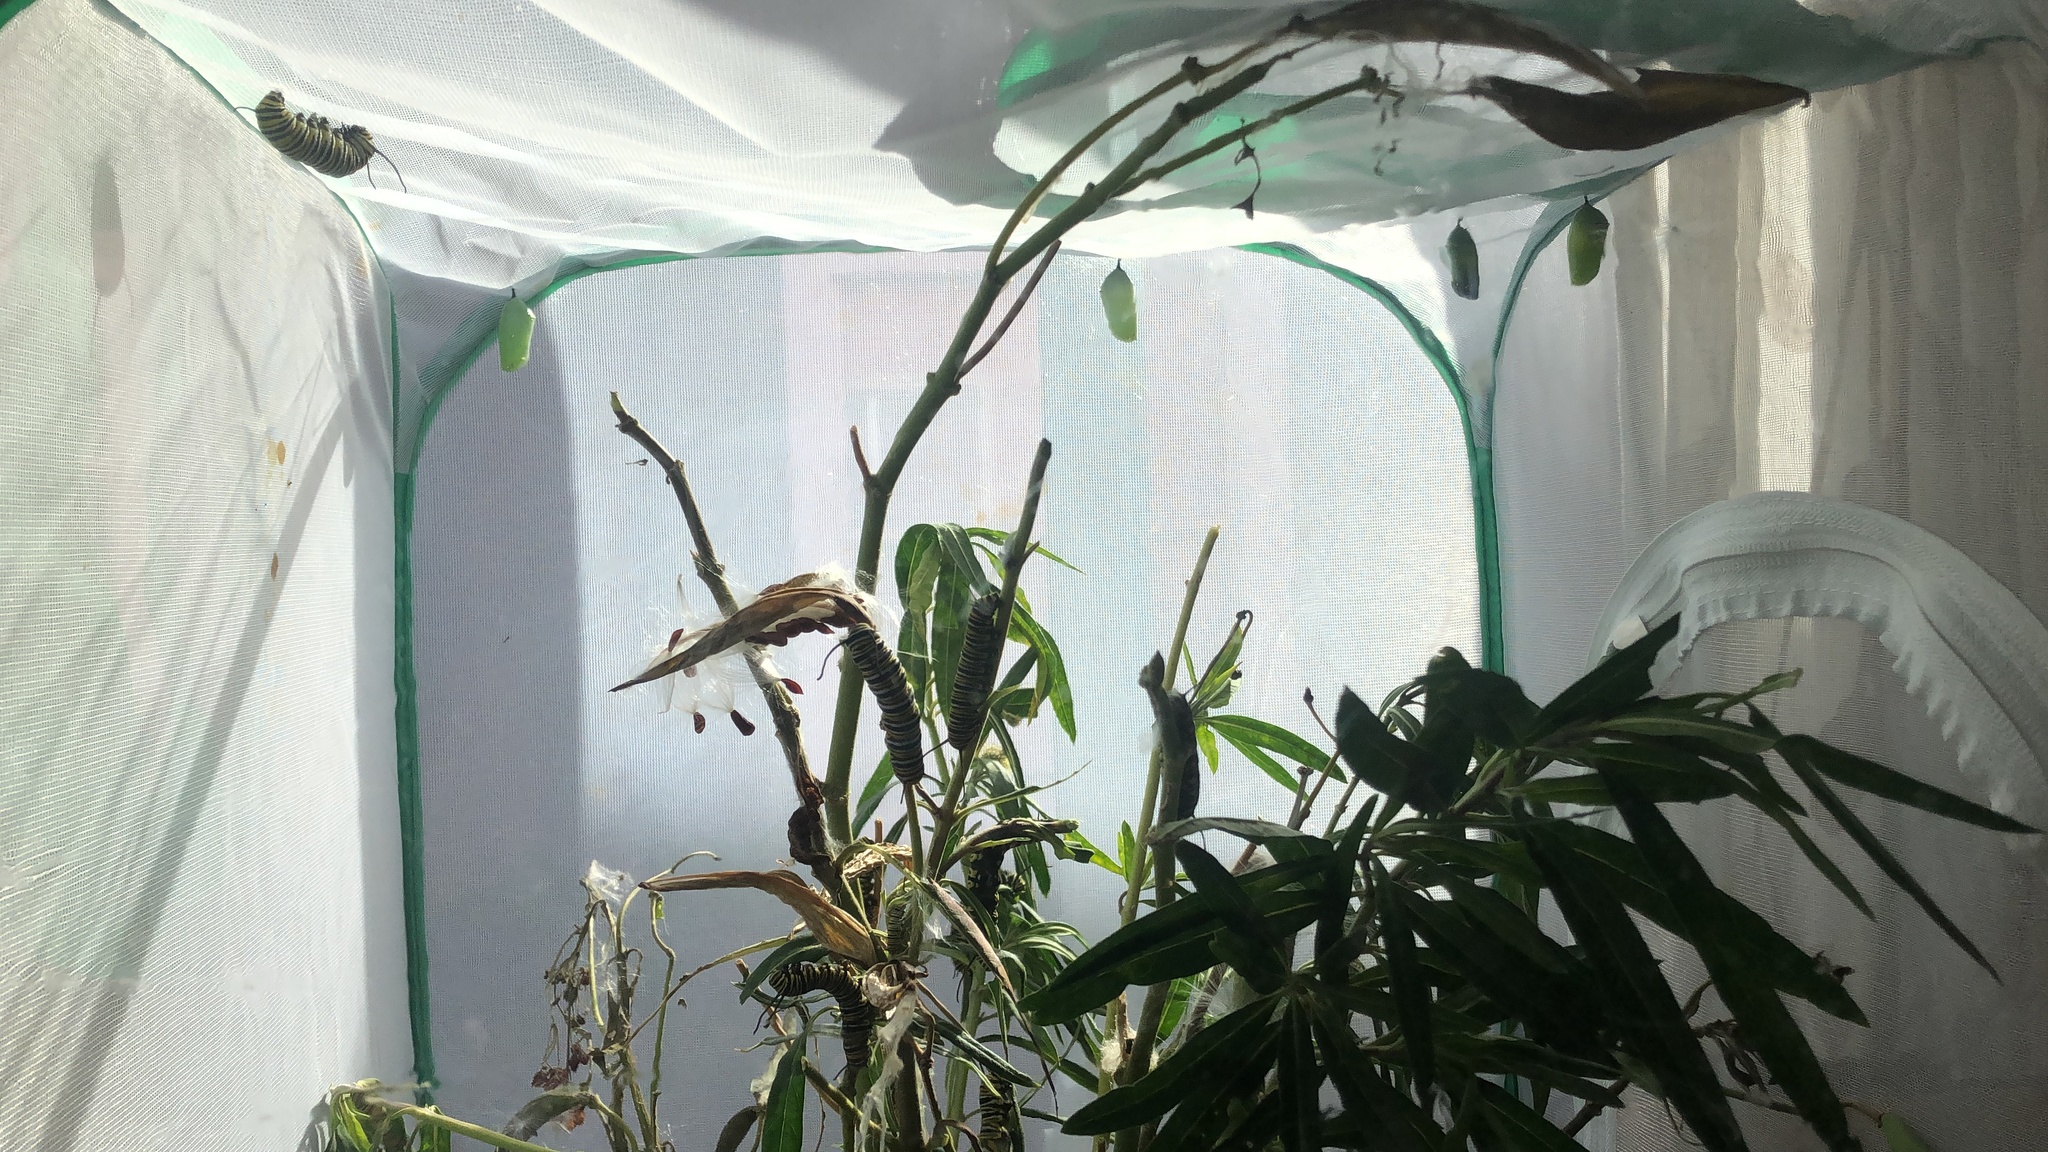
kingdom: Animalia
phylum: Arthropoda
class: Insecta
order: Lepidoptera
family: Nymphalidae
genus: Danaus
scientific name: Danaus plexippus
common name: Monarch
